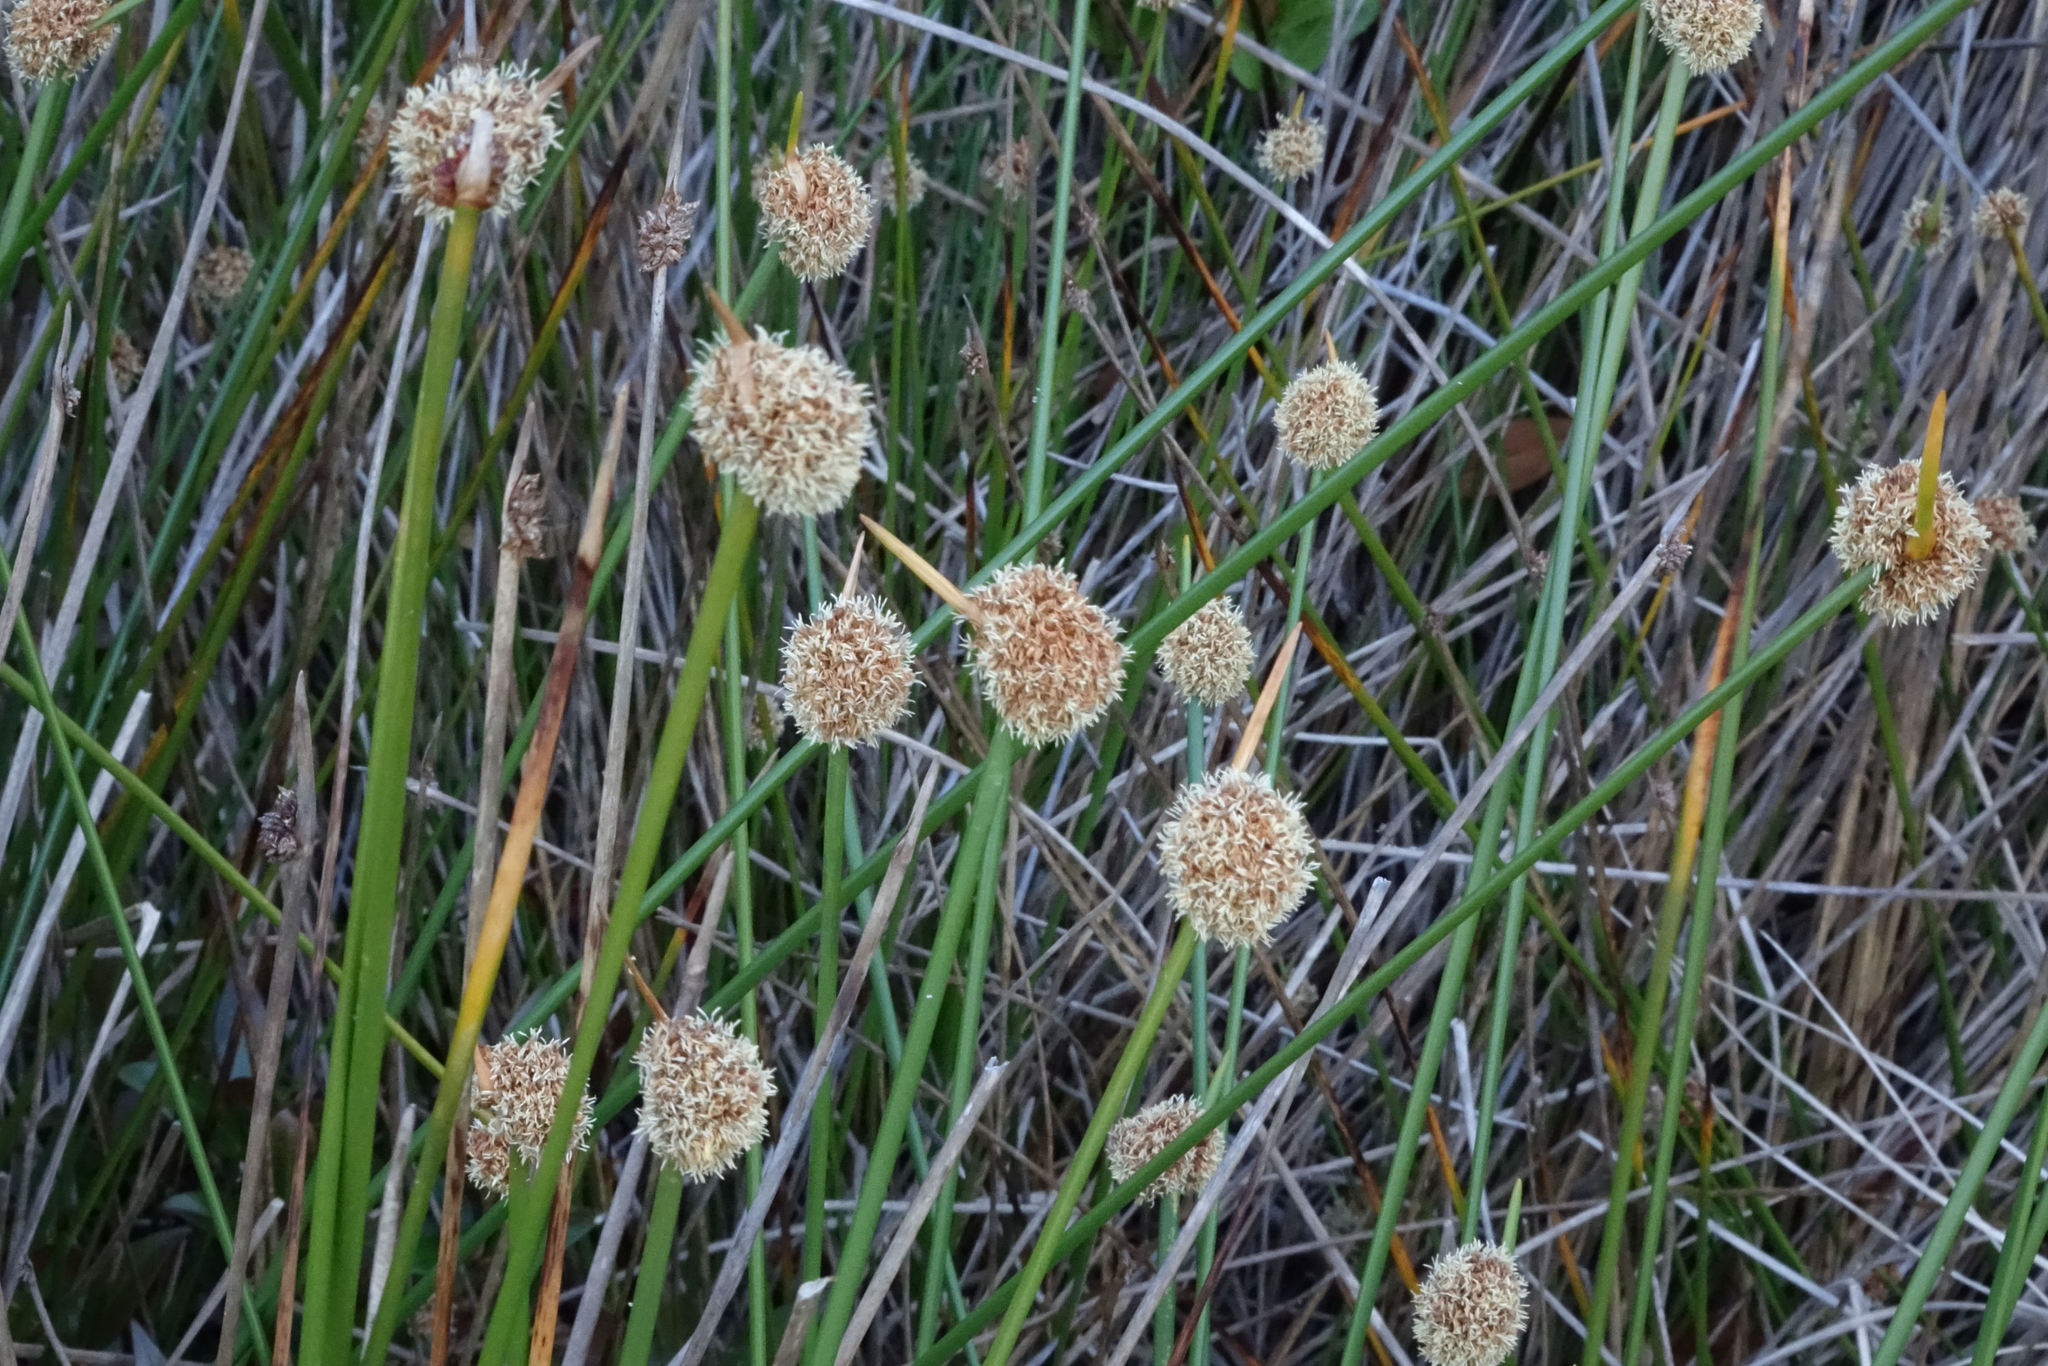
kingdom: Plantae
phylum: Tracheophyta
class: Liliopsida
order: Poales
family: Cyperaceae
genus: Ficinia
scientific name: Ficinia nodosa
